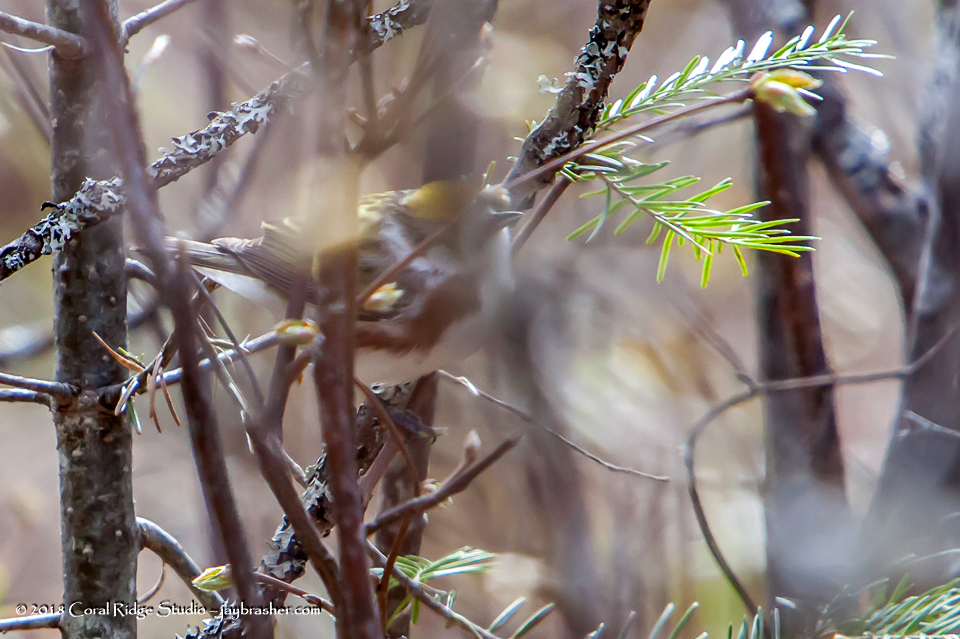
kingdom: Animalia
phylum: Chordata
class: Aves
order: Passeriformes
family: Parulidae
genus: Setophaga
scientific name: Setophaga pensylvanica
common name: Chestnut-sided warbler
